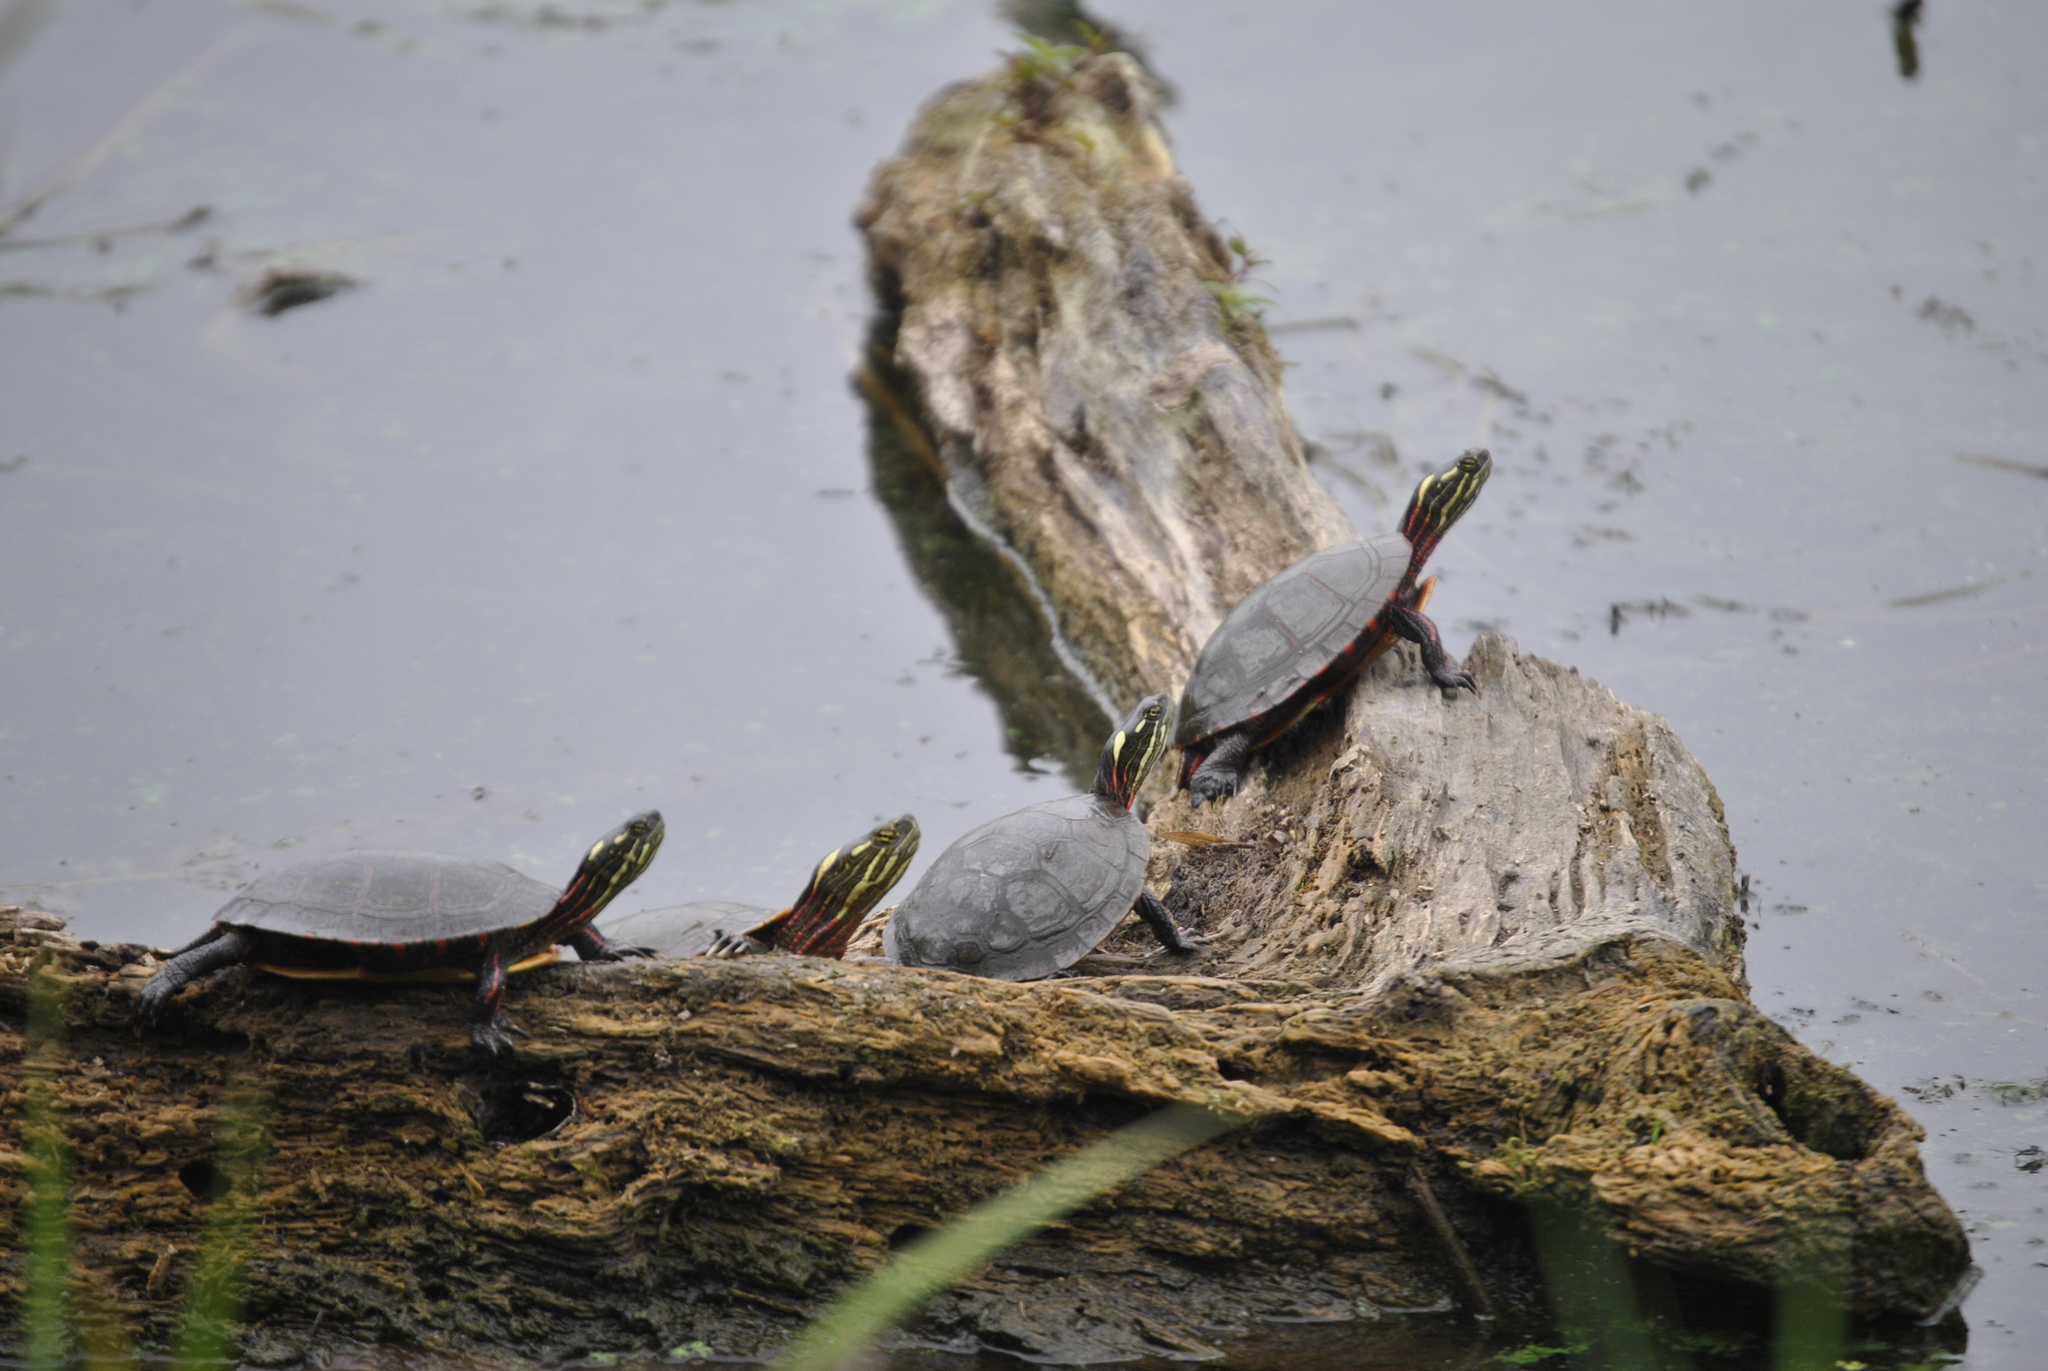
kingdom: Animalia
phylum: Chordata
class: Testudines
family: Emydidae
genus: Chrysemys
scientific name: Chrysemys picta
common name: Painted turtle
